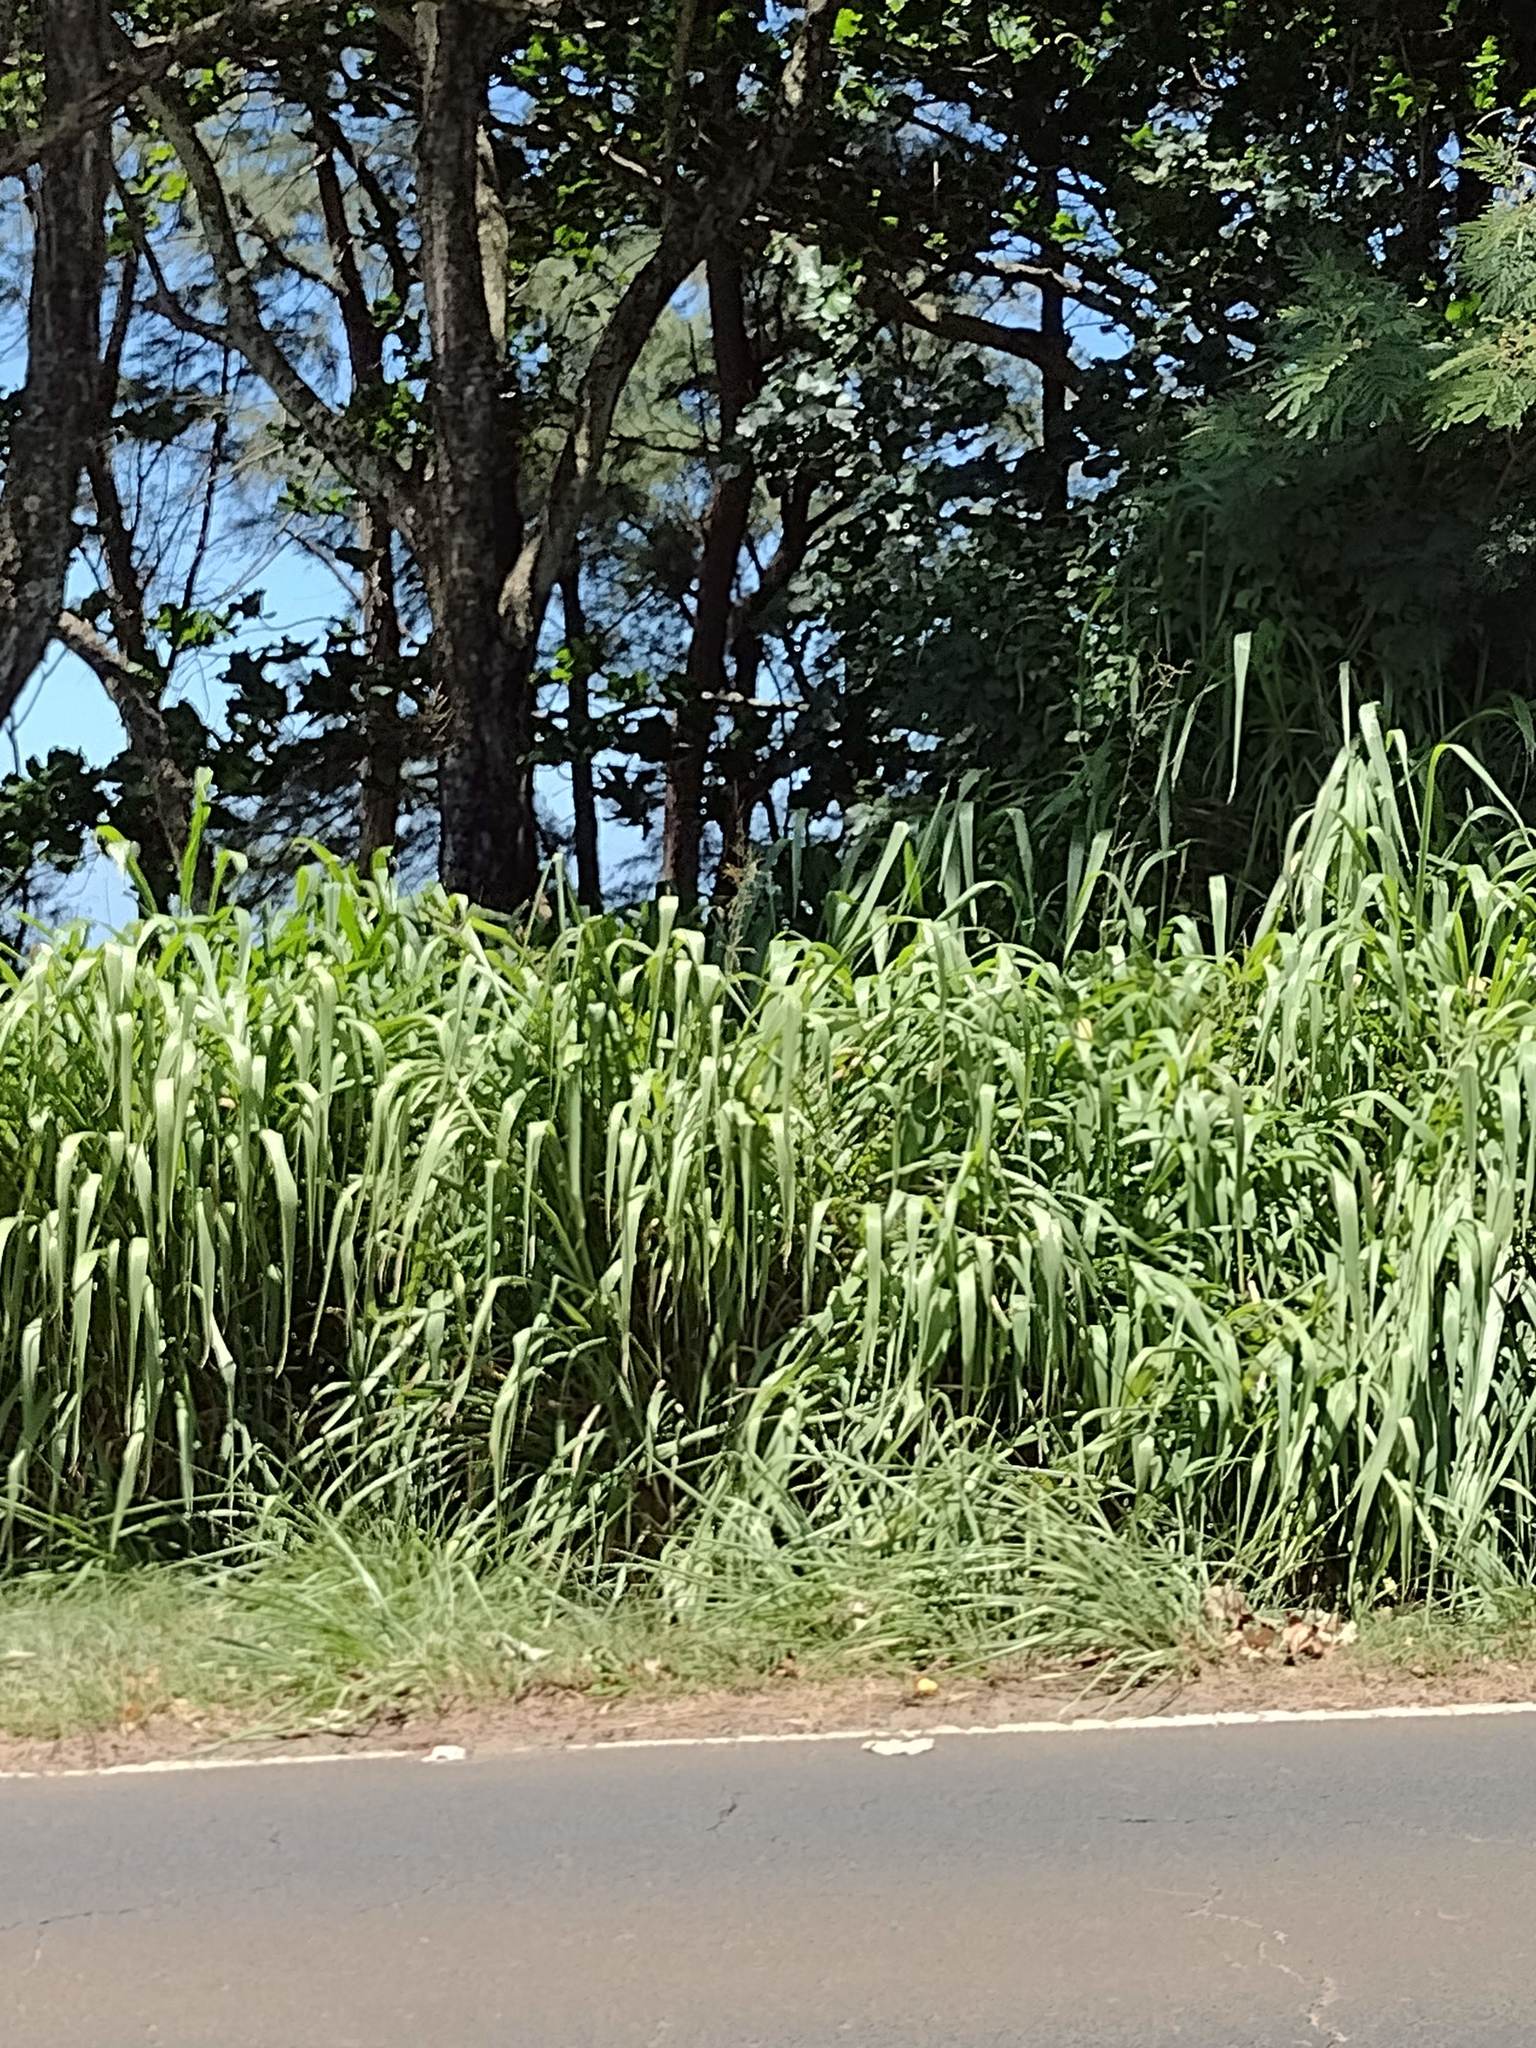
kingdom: Plantae
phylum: Tracheophyta
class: Liliopsida
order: Poales
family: Poaceae
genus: Megathyrsus
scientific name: Megathyrsus maximus
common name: Guineagrass
